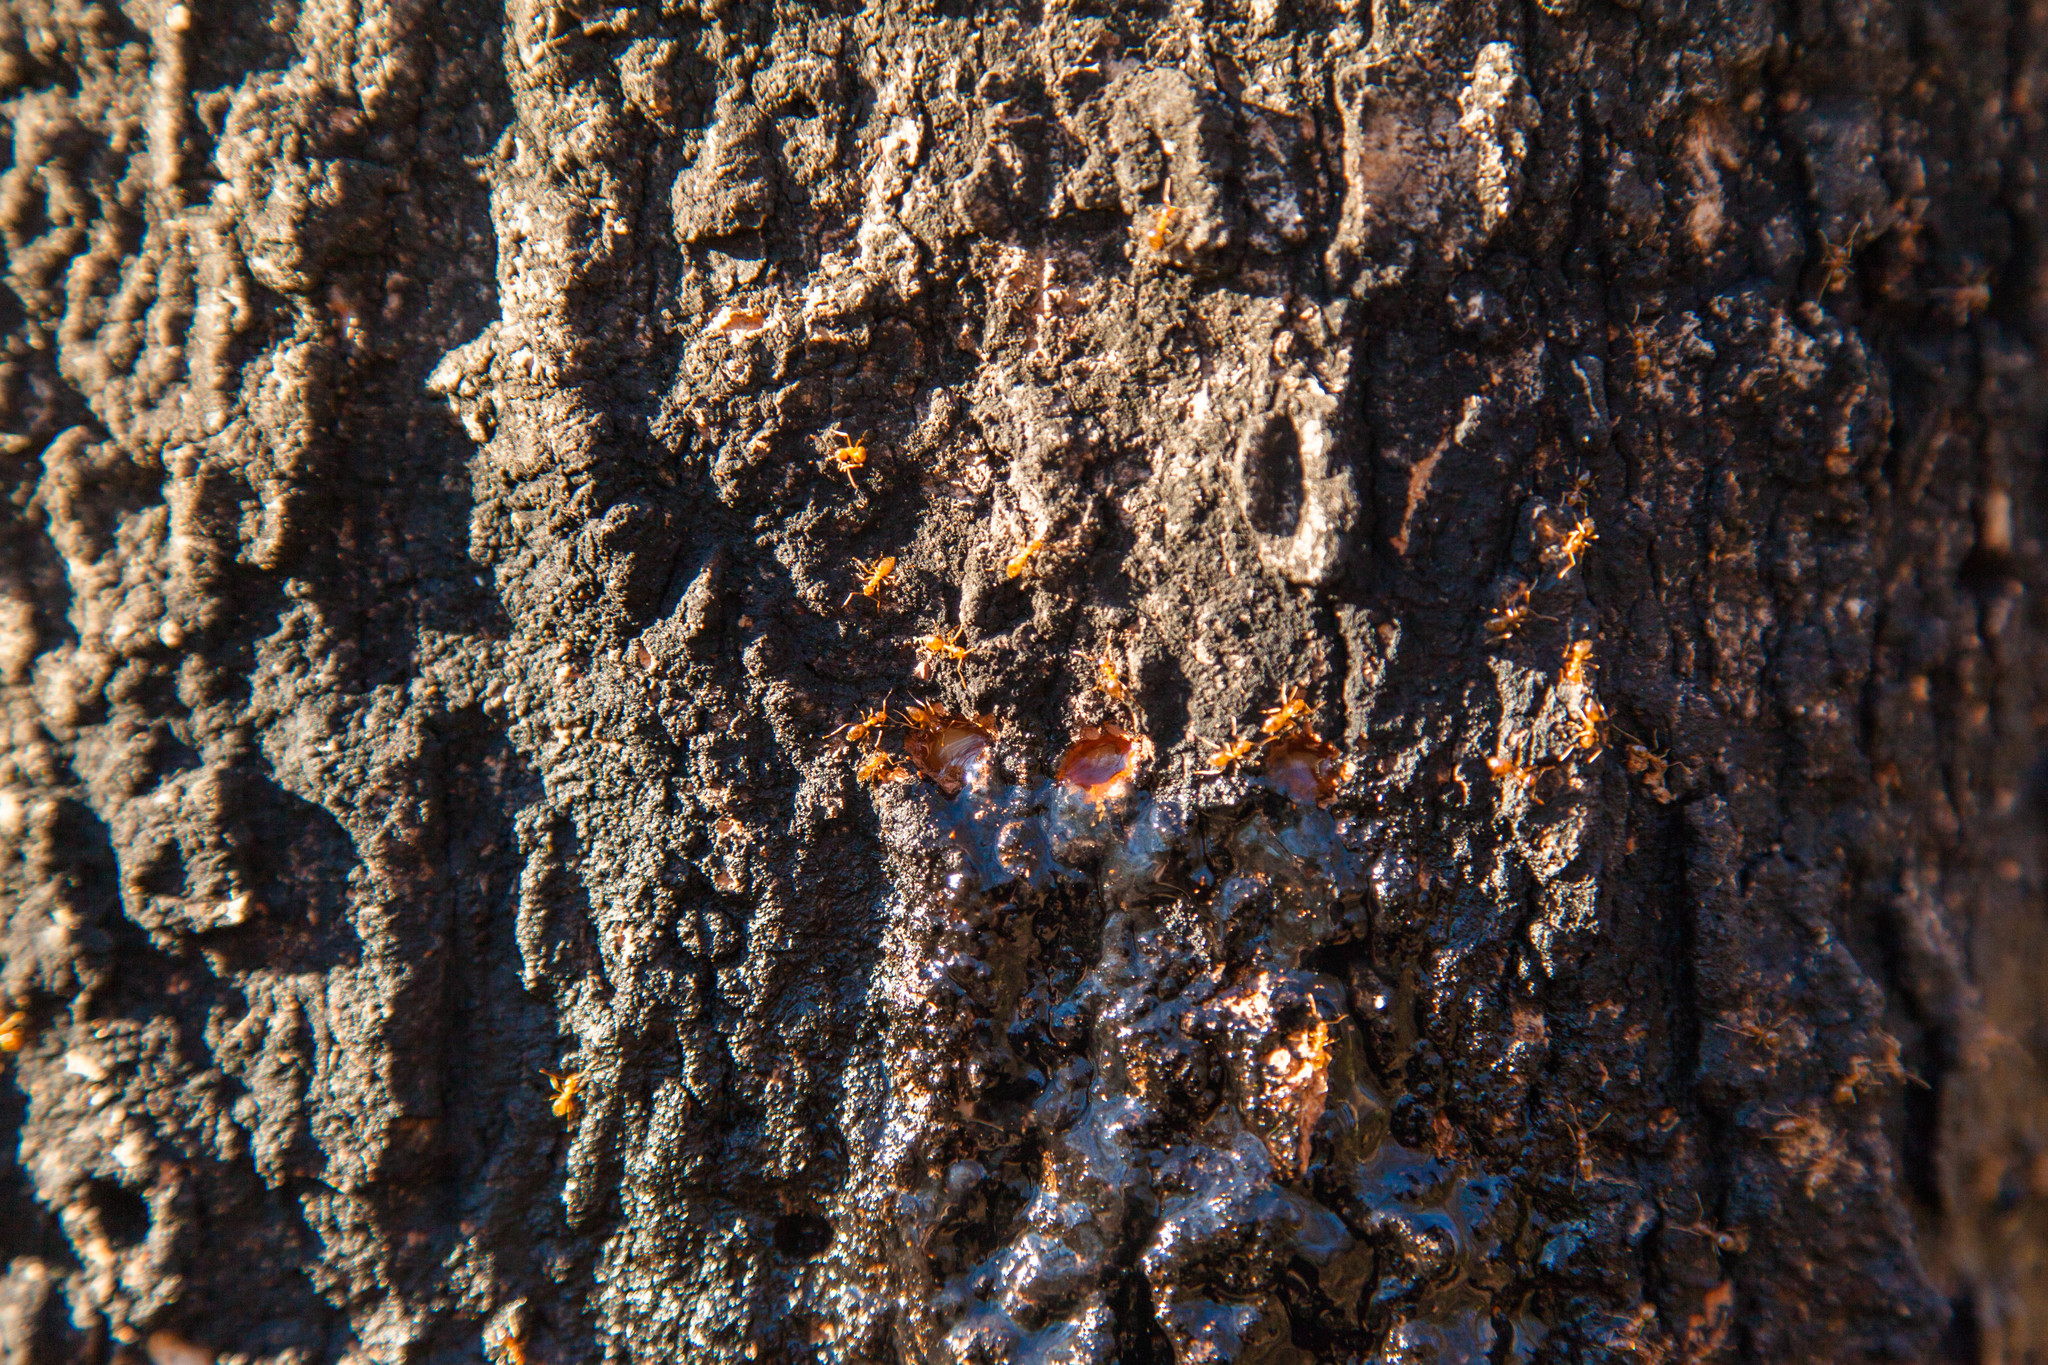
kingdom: Animalia
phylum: Arthropoda
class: Insecta
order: Hymenoptera
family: Formicidae
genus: Prenolepis
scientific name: Prenolepis imparis
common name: Small honey ant
